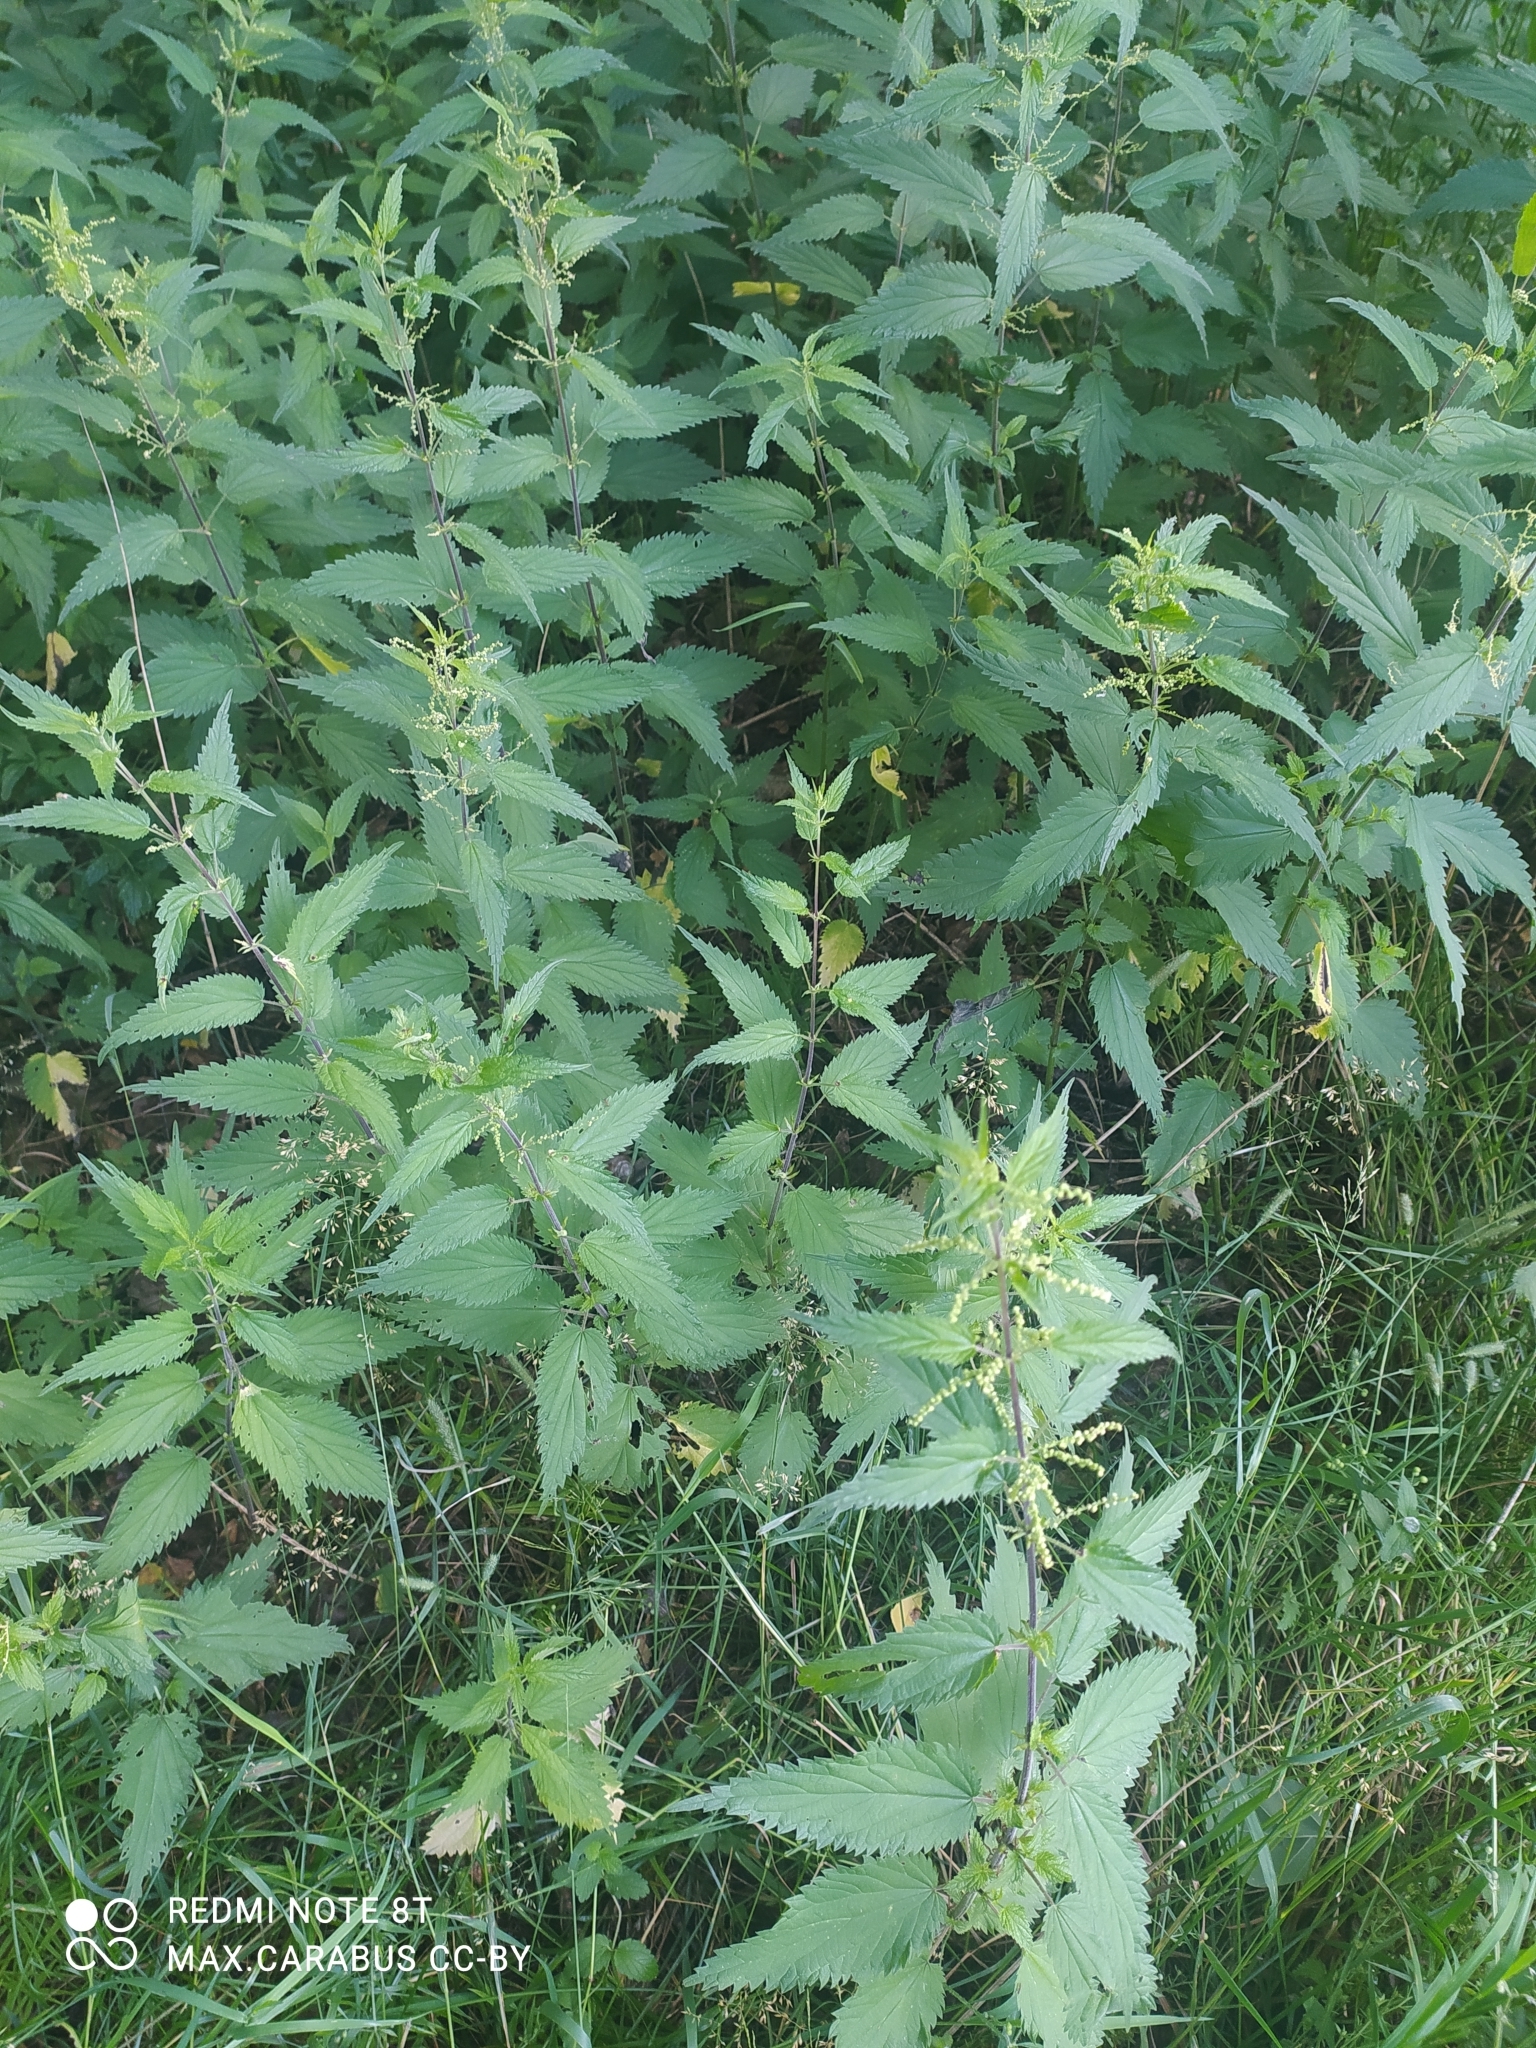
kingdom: Plantae
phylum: Tracheophyta
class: Magnoliopsida
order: Rosales
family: Urticaceae
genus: Urtica
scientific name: Urtica dioica
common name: Common nettle
